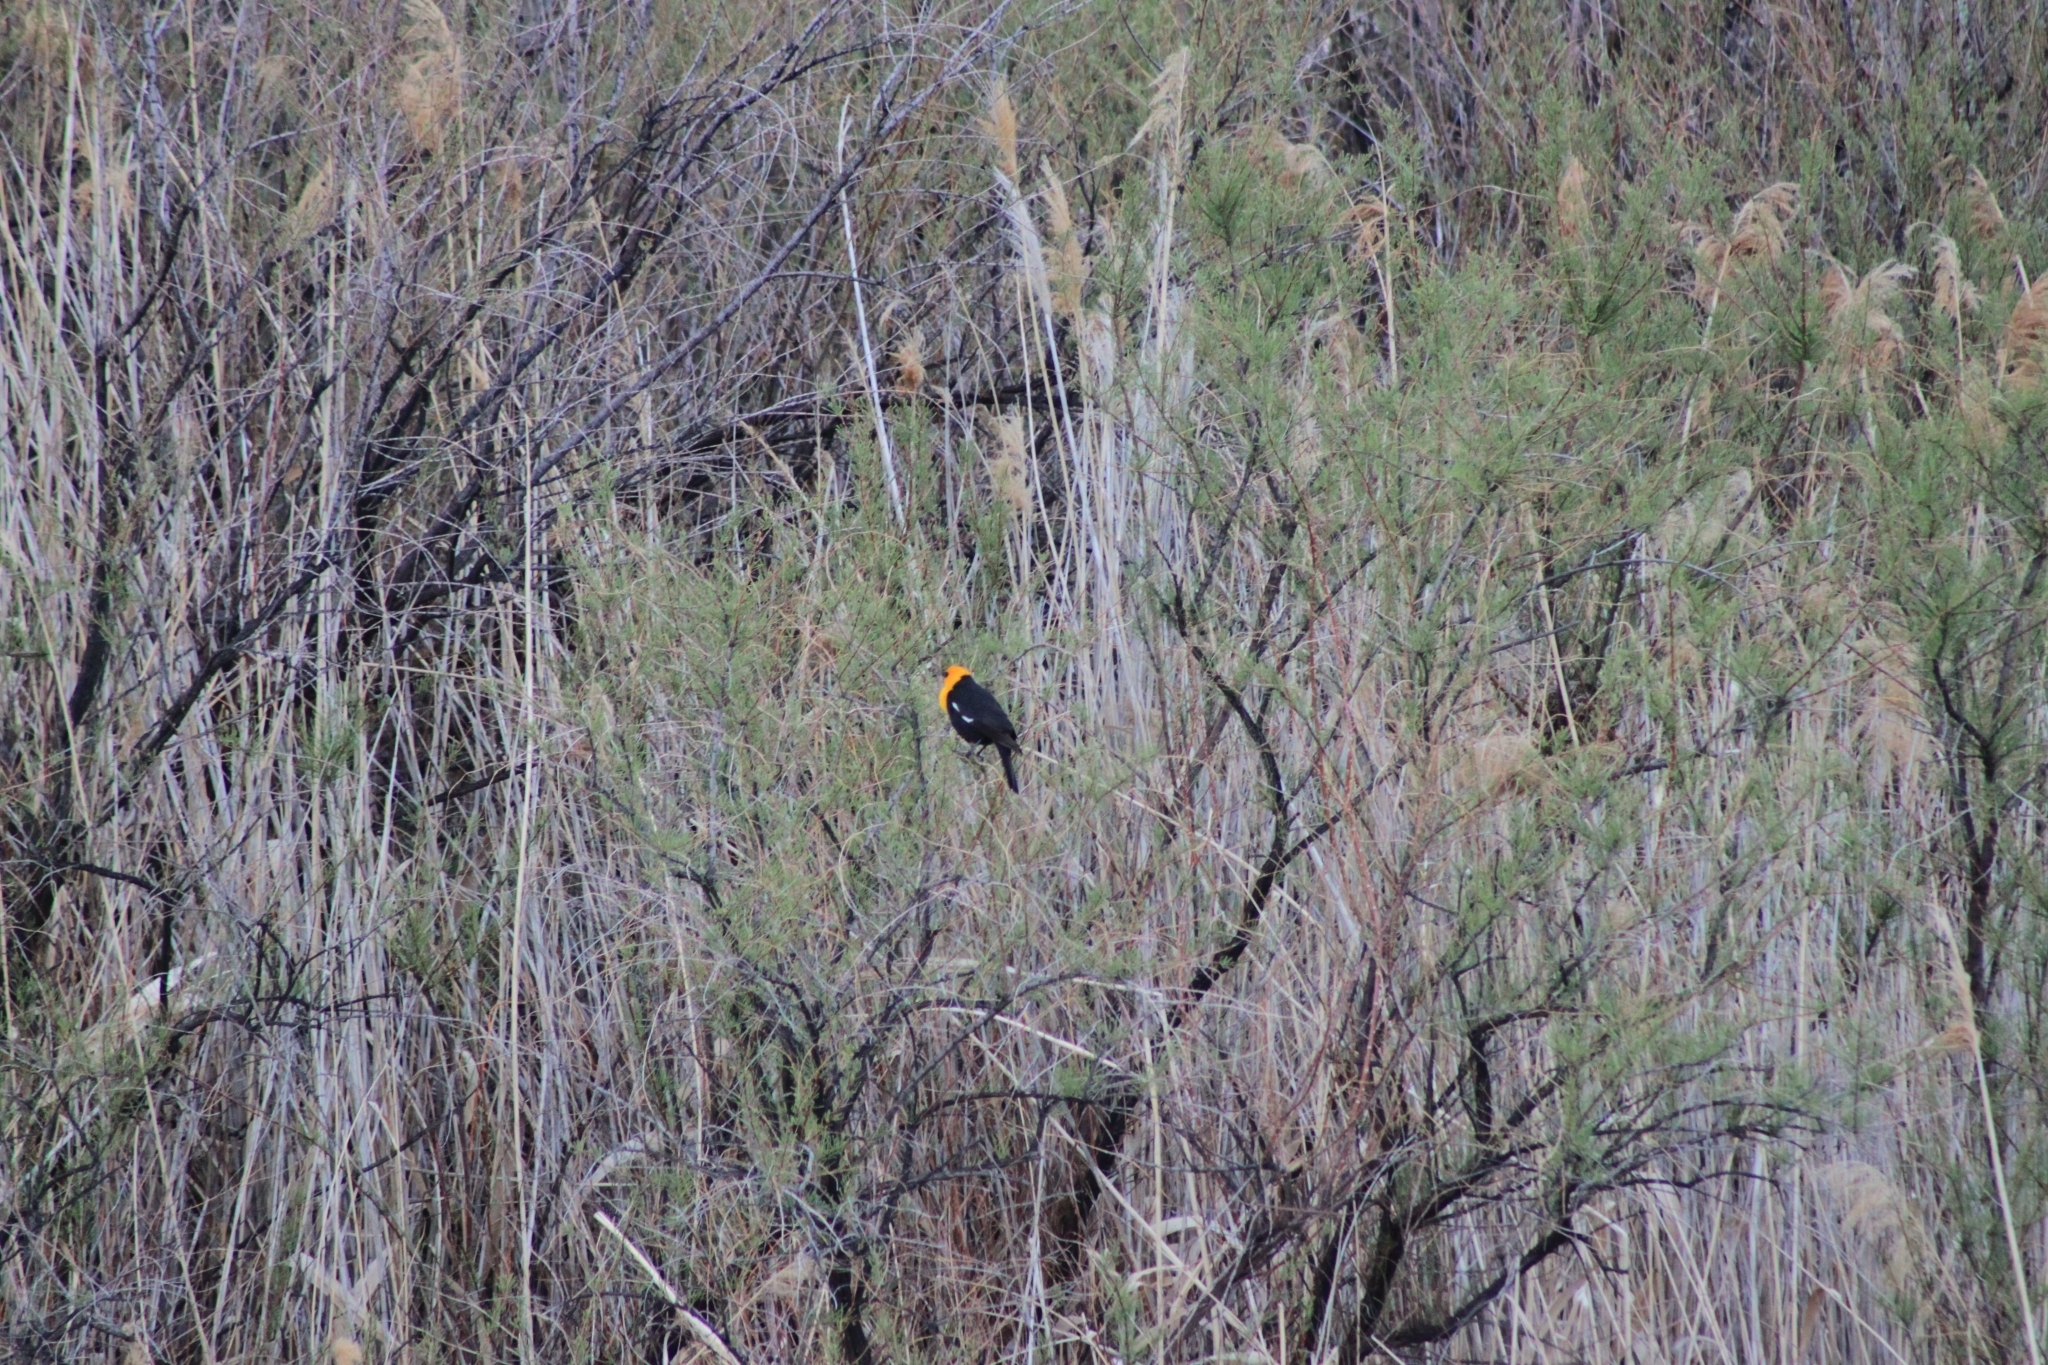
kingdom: Animalia
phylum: Chordata
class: Aves
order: Passeriformes
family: Icteridae
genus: Xanthocephalus
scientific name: Xanthocephalus xanthocephalus
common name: Yellow-headed blackbird
